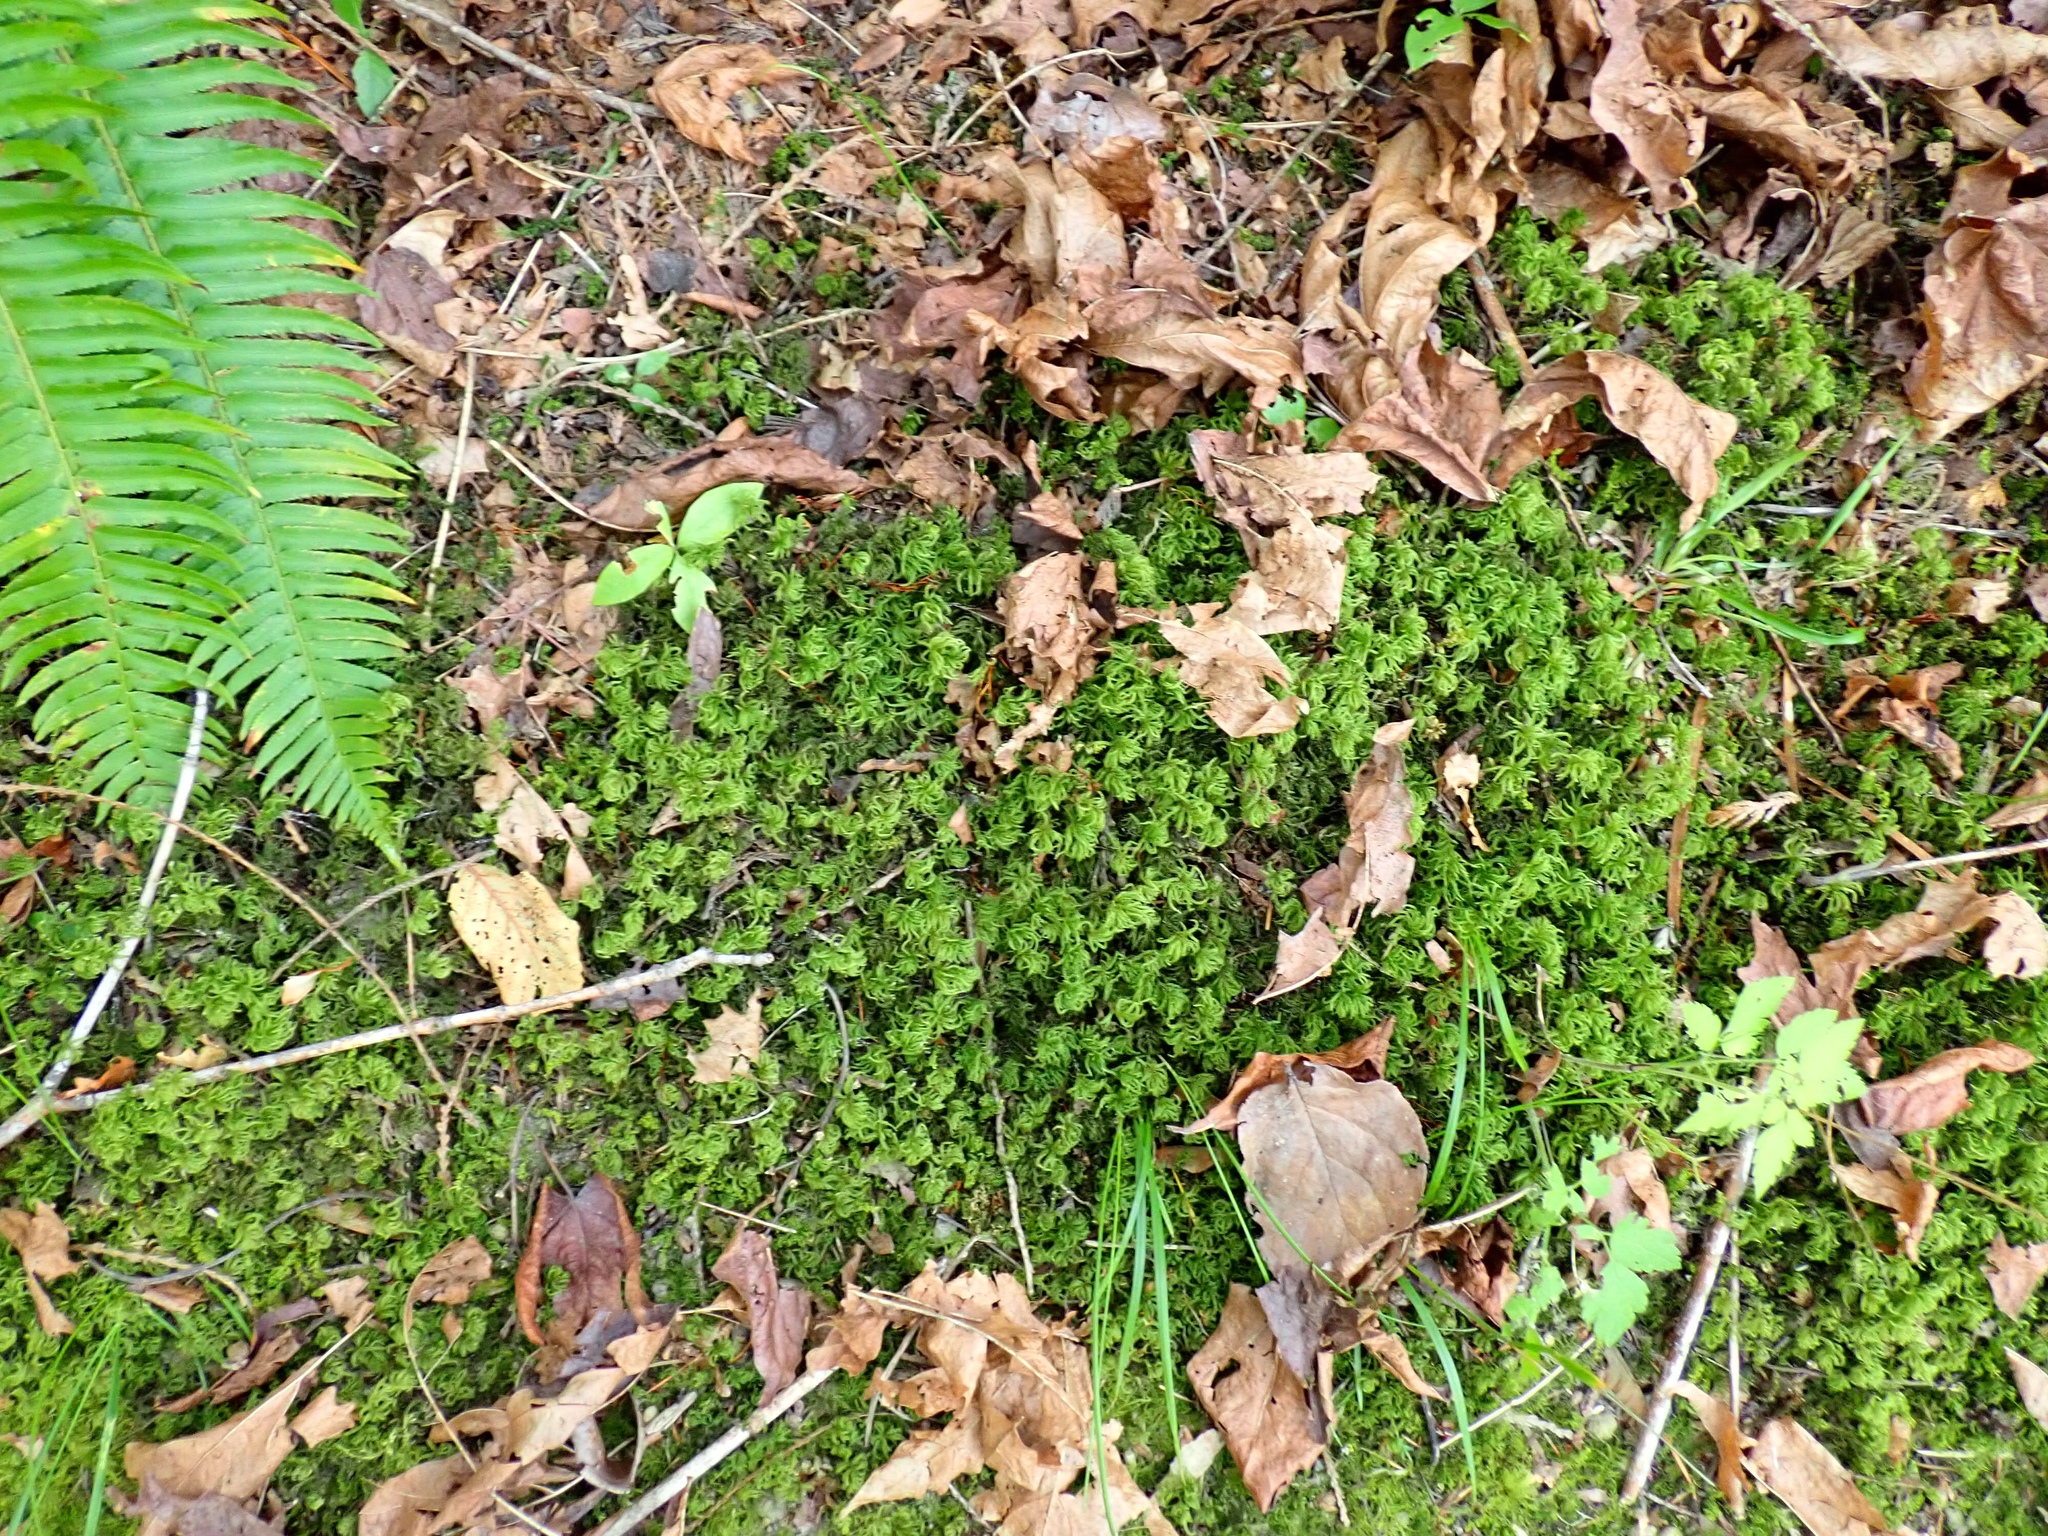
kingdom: Plantae
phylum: Bryophyta
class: Bryopsida
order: Bryales
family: Mniaceae
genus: Leucolepis
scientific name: Leucolepis acanthoneura
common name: Leucolepis umbrella moss
